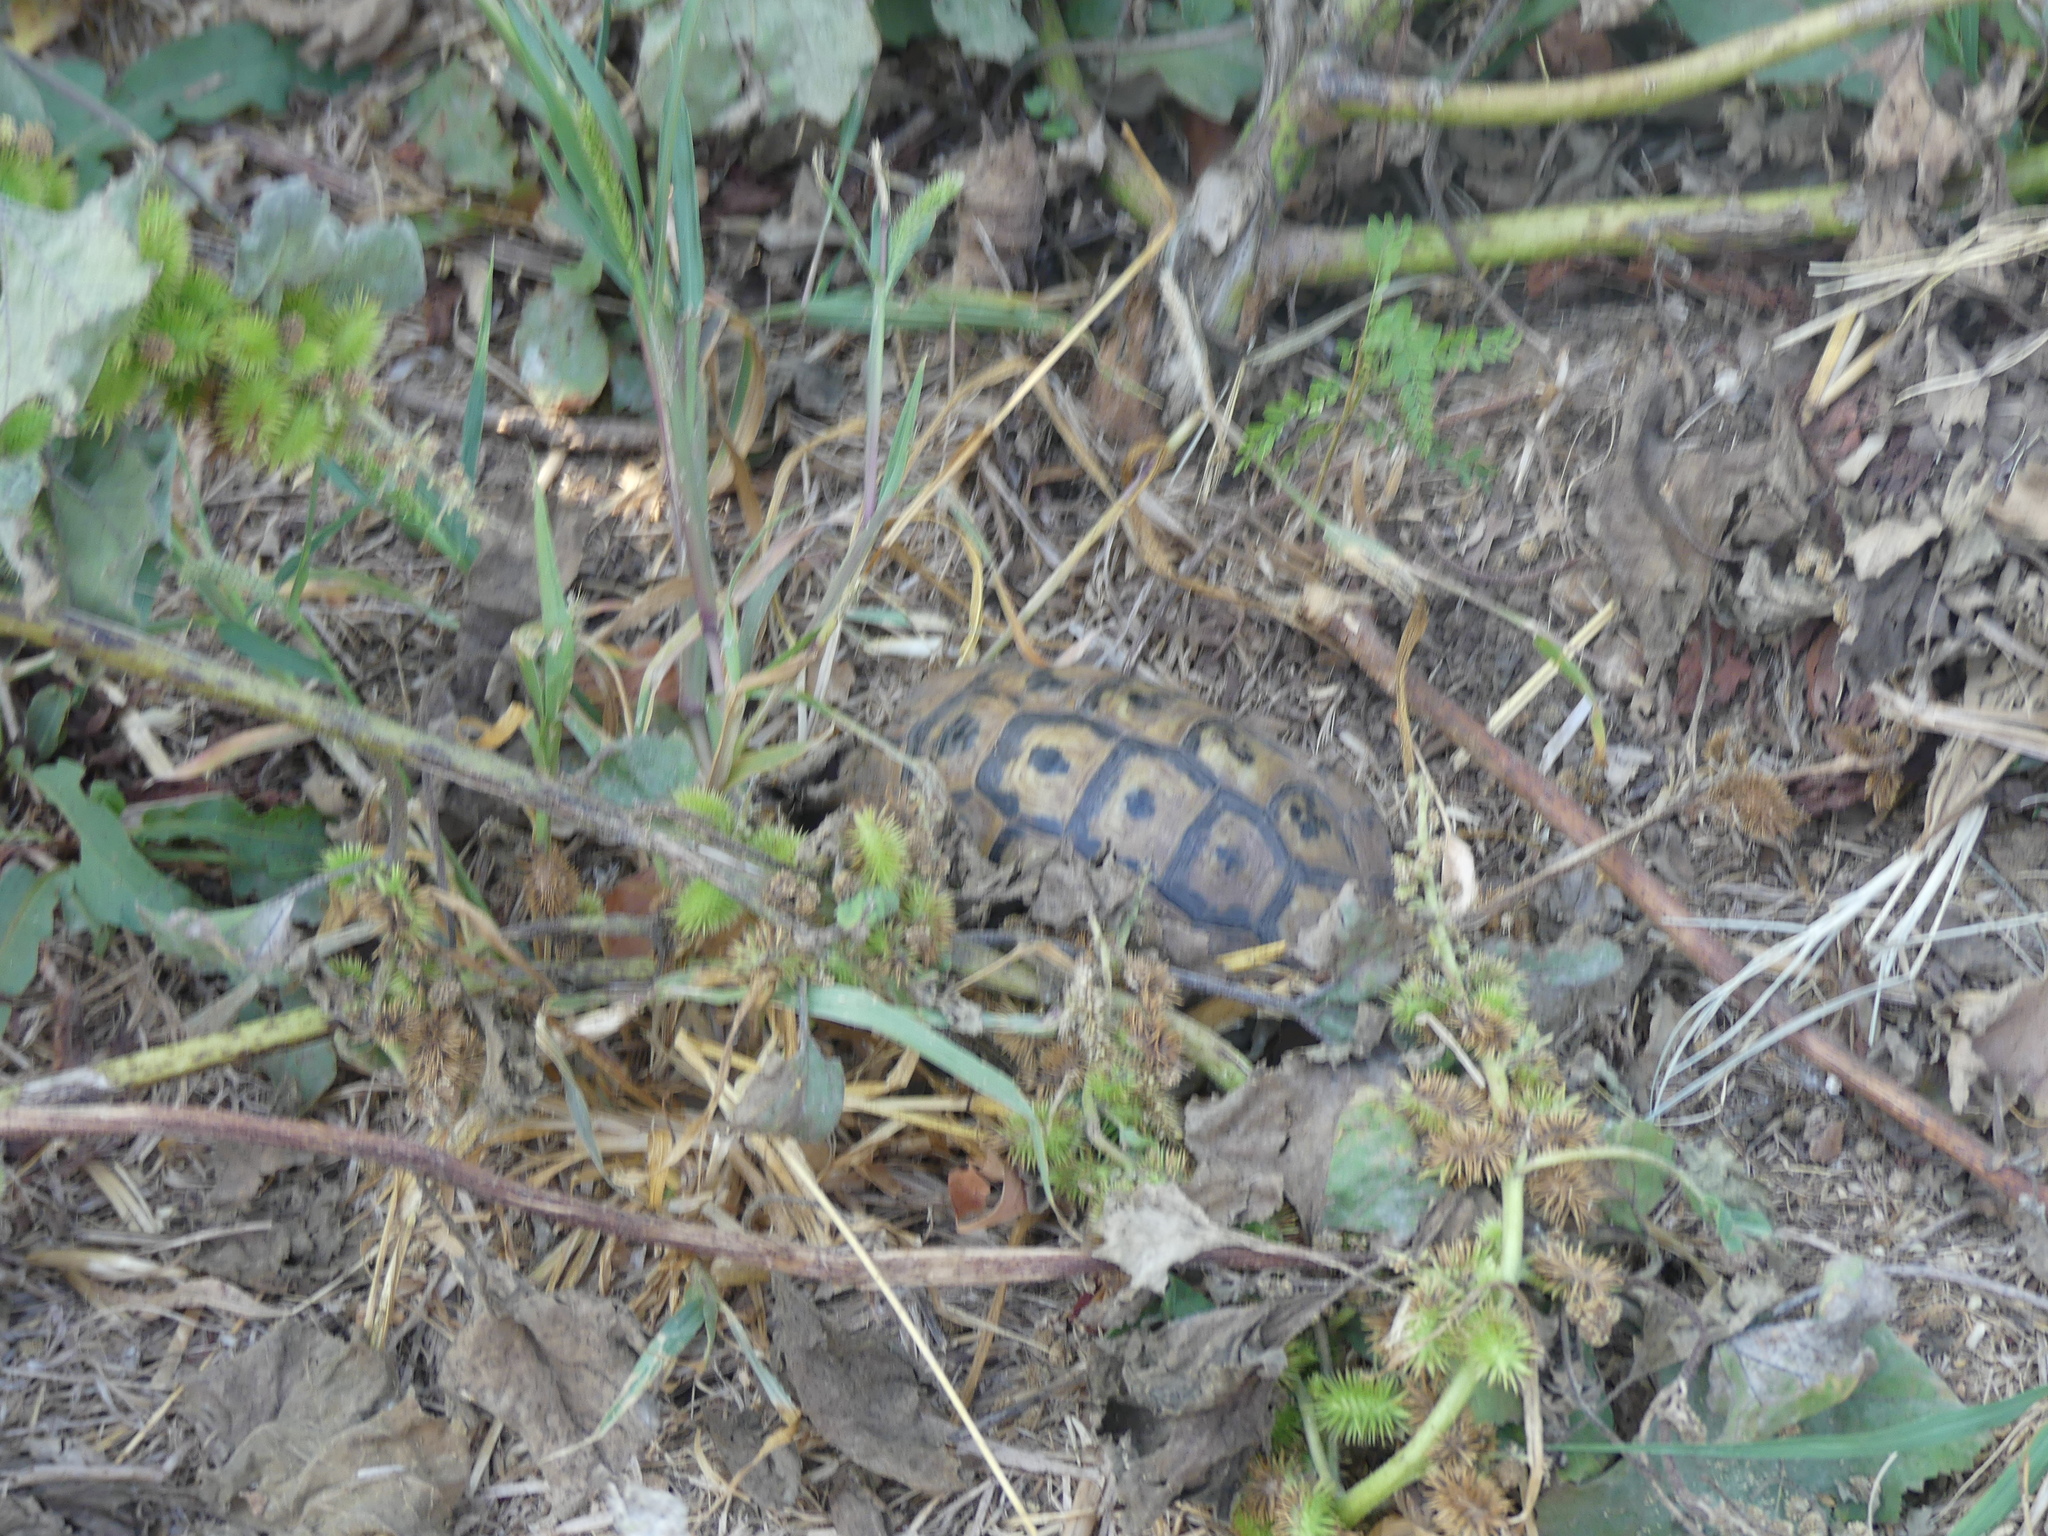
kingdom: Animalia
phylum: Chordata
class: Testudines
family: Testudinidae
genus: Testudo
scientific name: Testudo graeca
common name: Common tortoise
